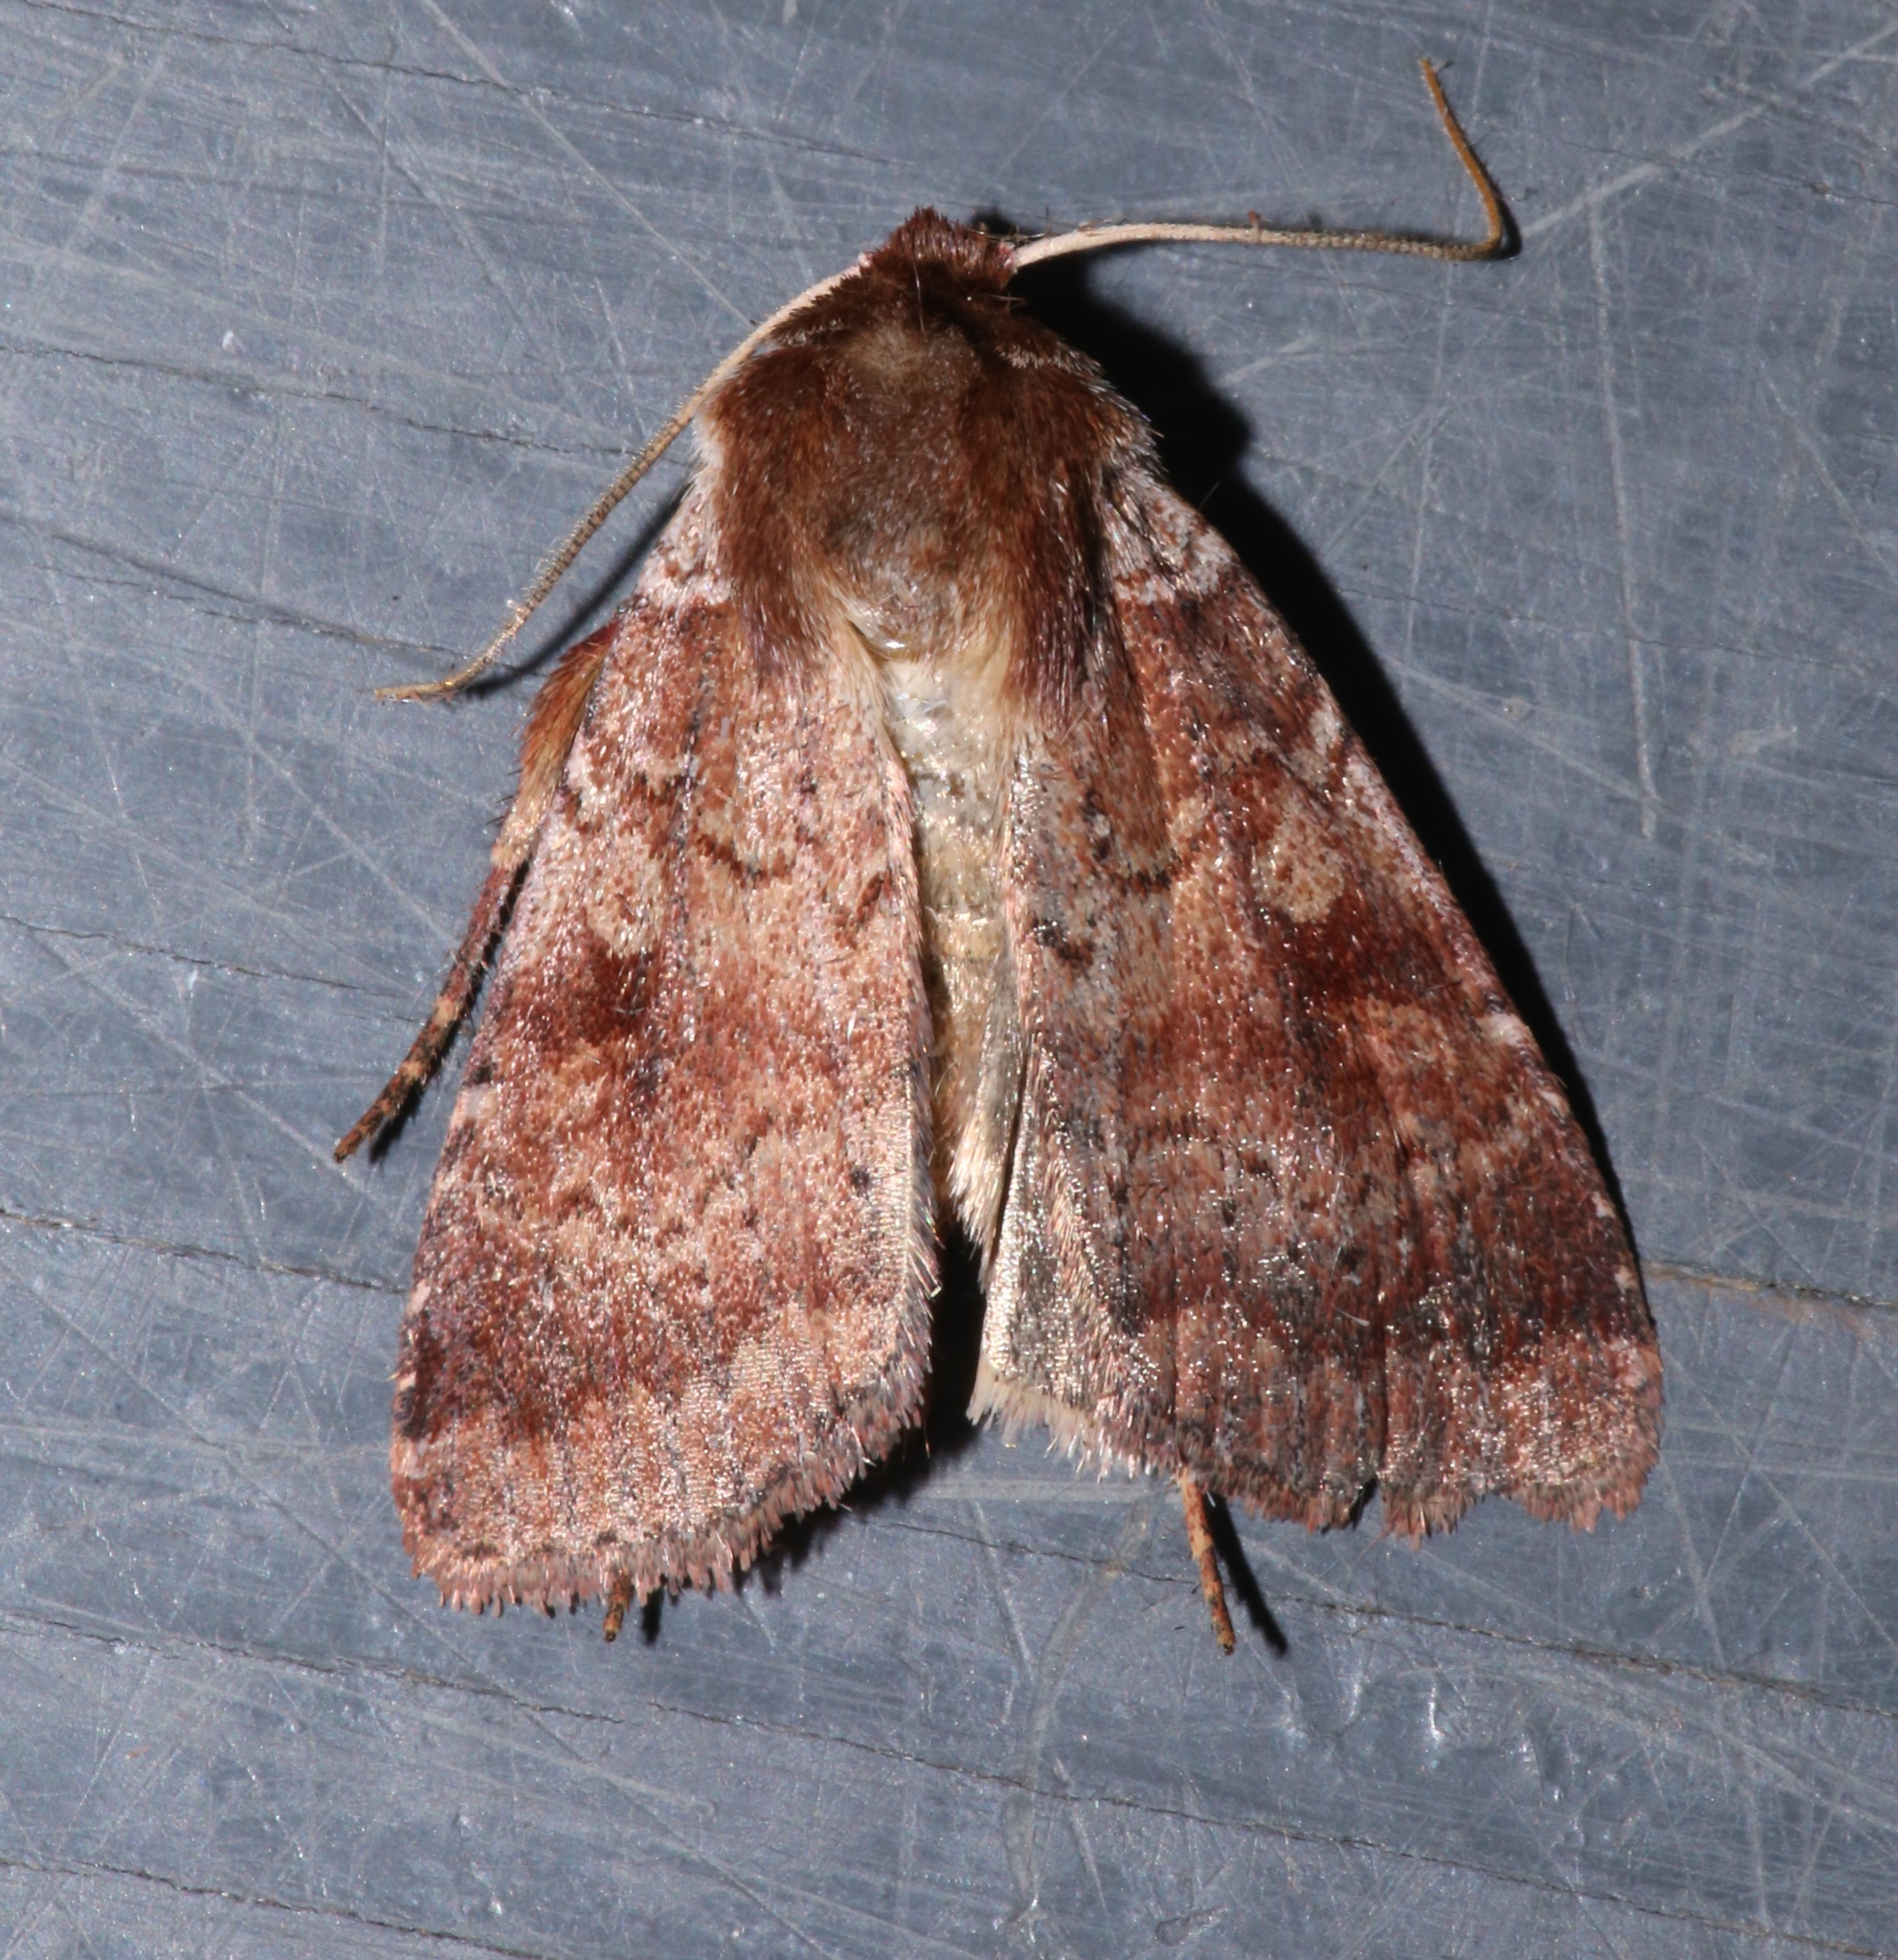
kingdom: Animalia
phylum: Arthropoda
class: Insecta
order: Lepidoptera
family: Noctuidae
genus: Lycophotia
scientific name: Lycophotia phyllophora
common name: Lycophotia moth
